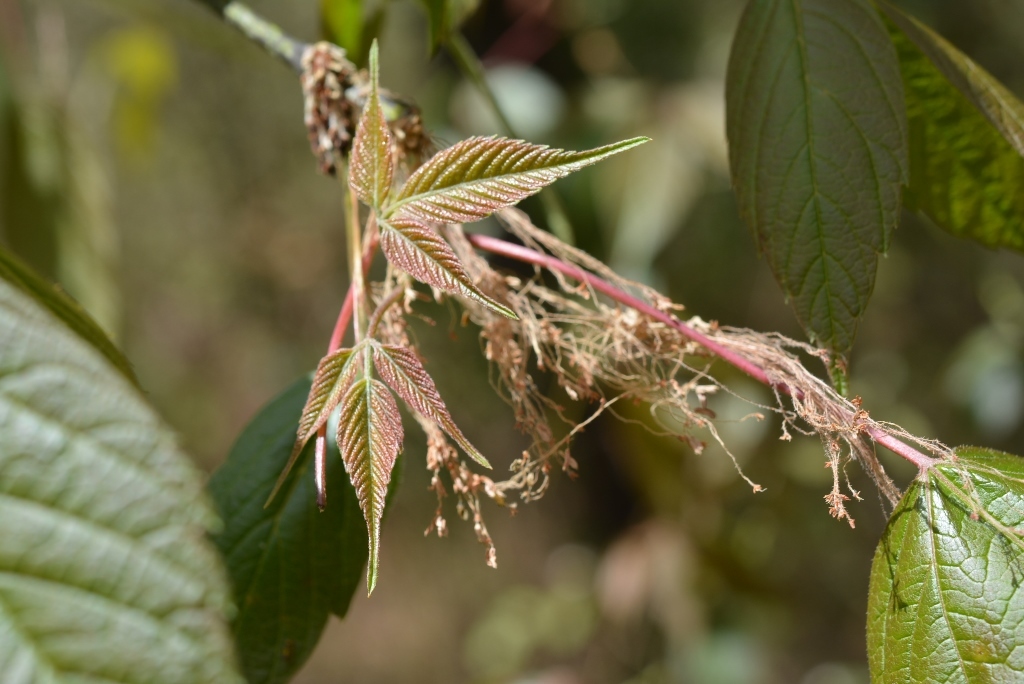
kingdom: Plantae
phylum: Tracheophyta
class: Magnoliopsida
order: Sapindales
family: Sapindaceae
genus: Acer
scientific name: Acer negundo
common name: Ashleaf maple
